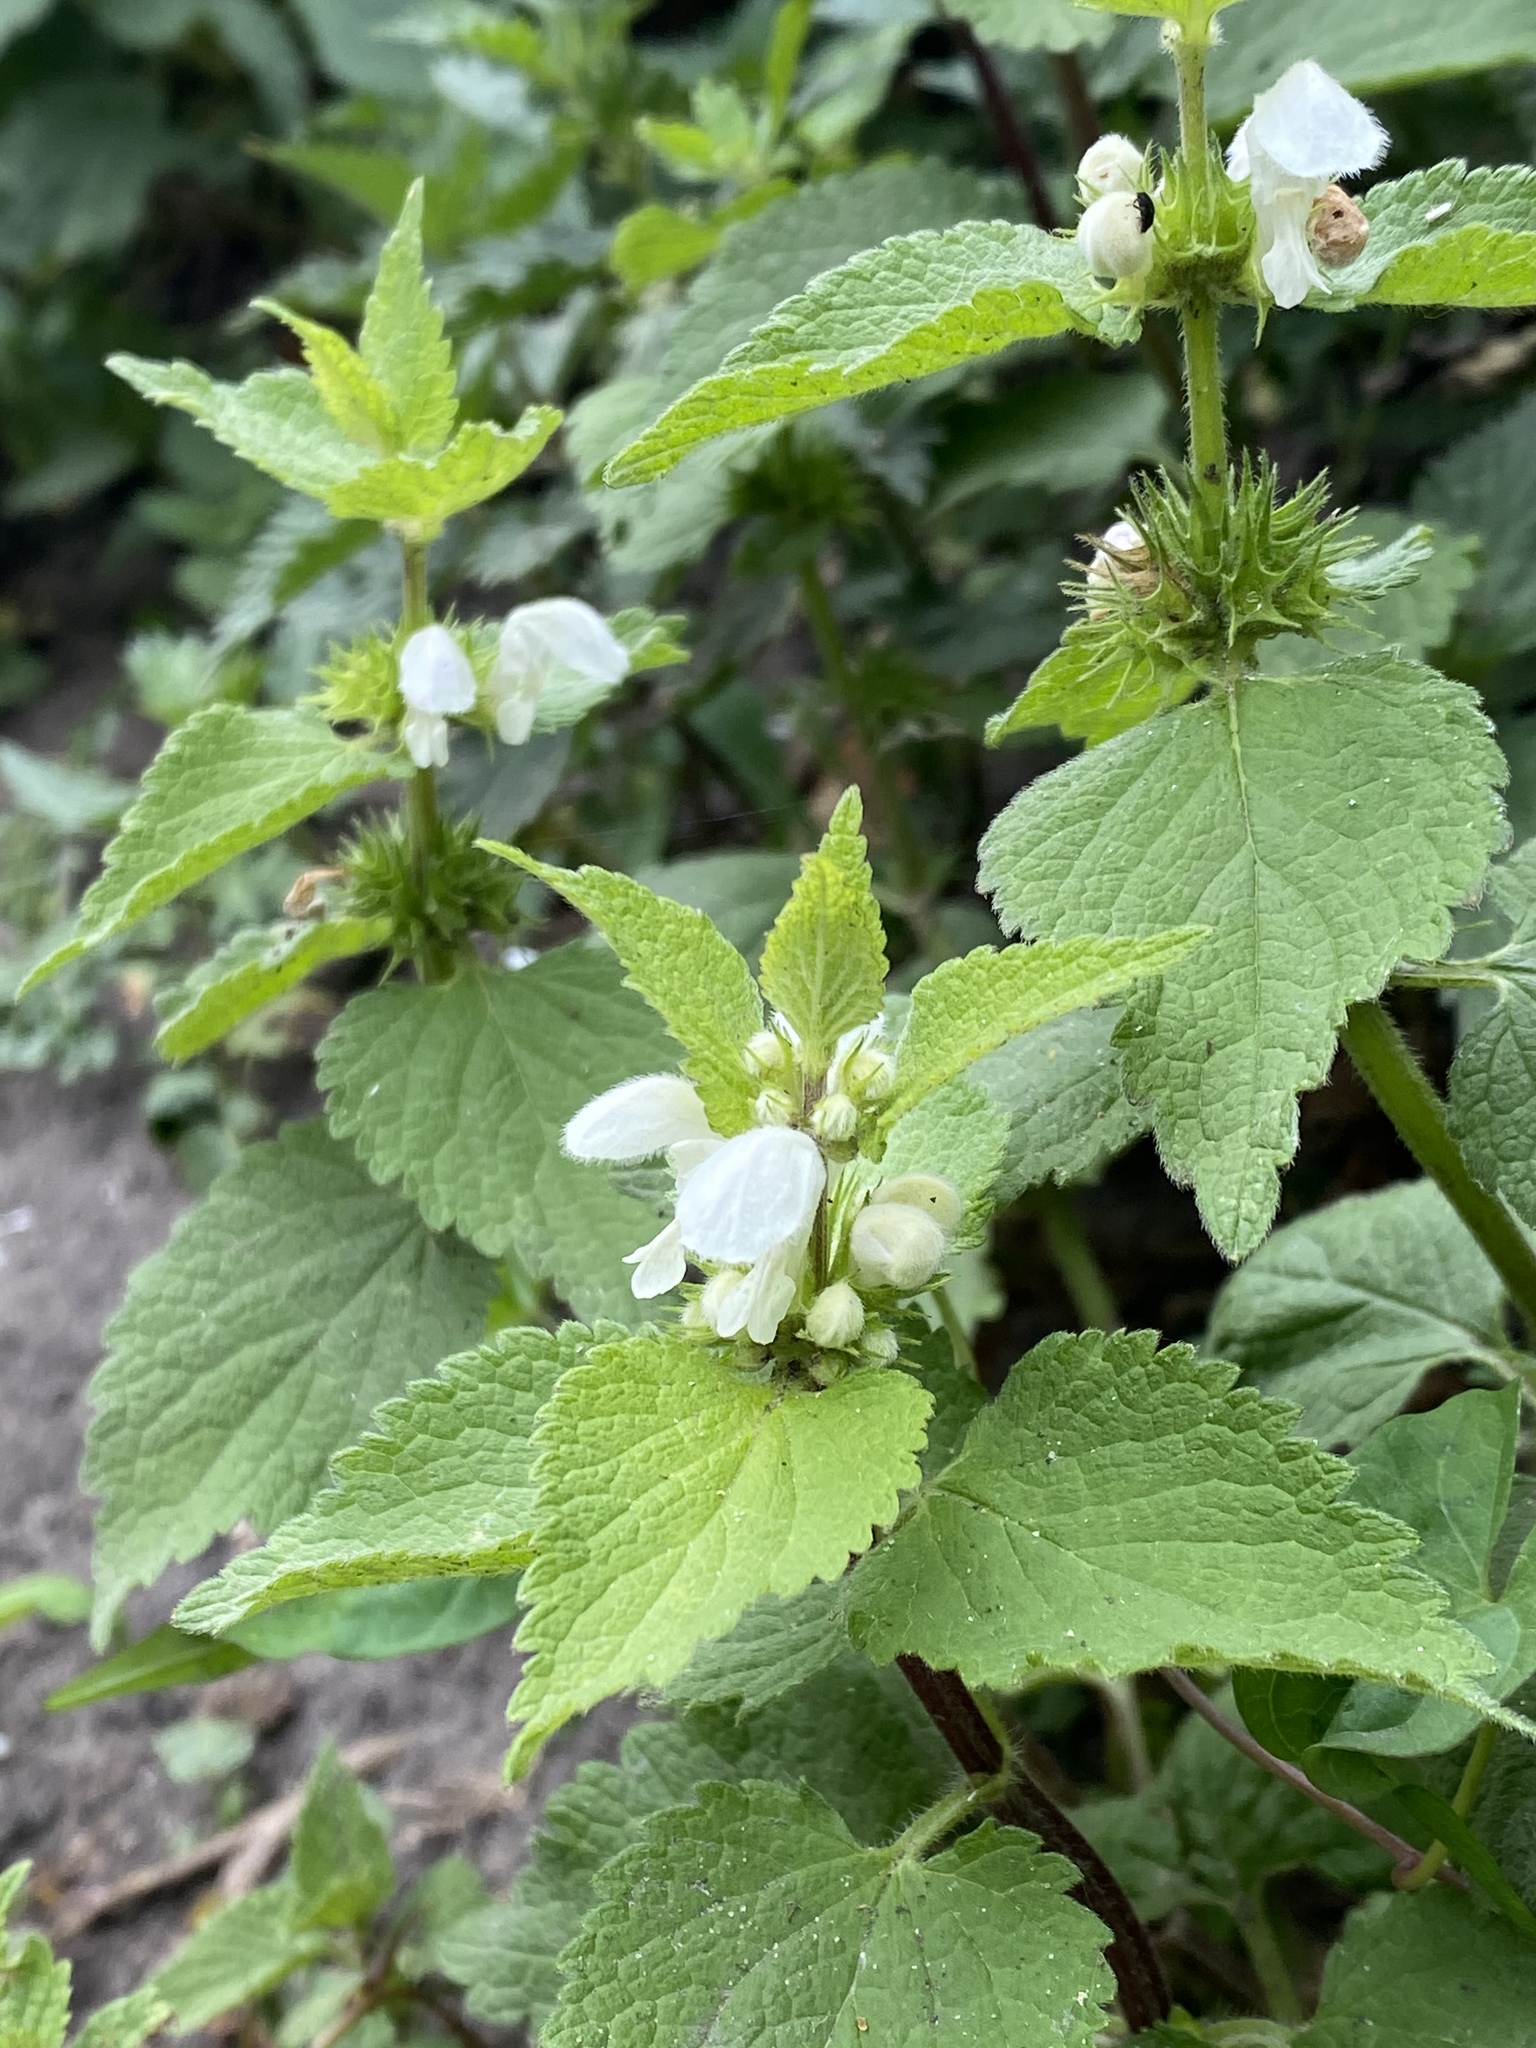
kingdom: Plantae
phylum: Tracheophyta
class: Magnoliopsida
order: Lamiales
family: Lamiaceae
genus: Lamium
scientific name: Lamium album
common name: White dead-nettle
